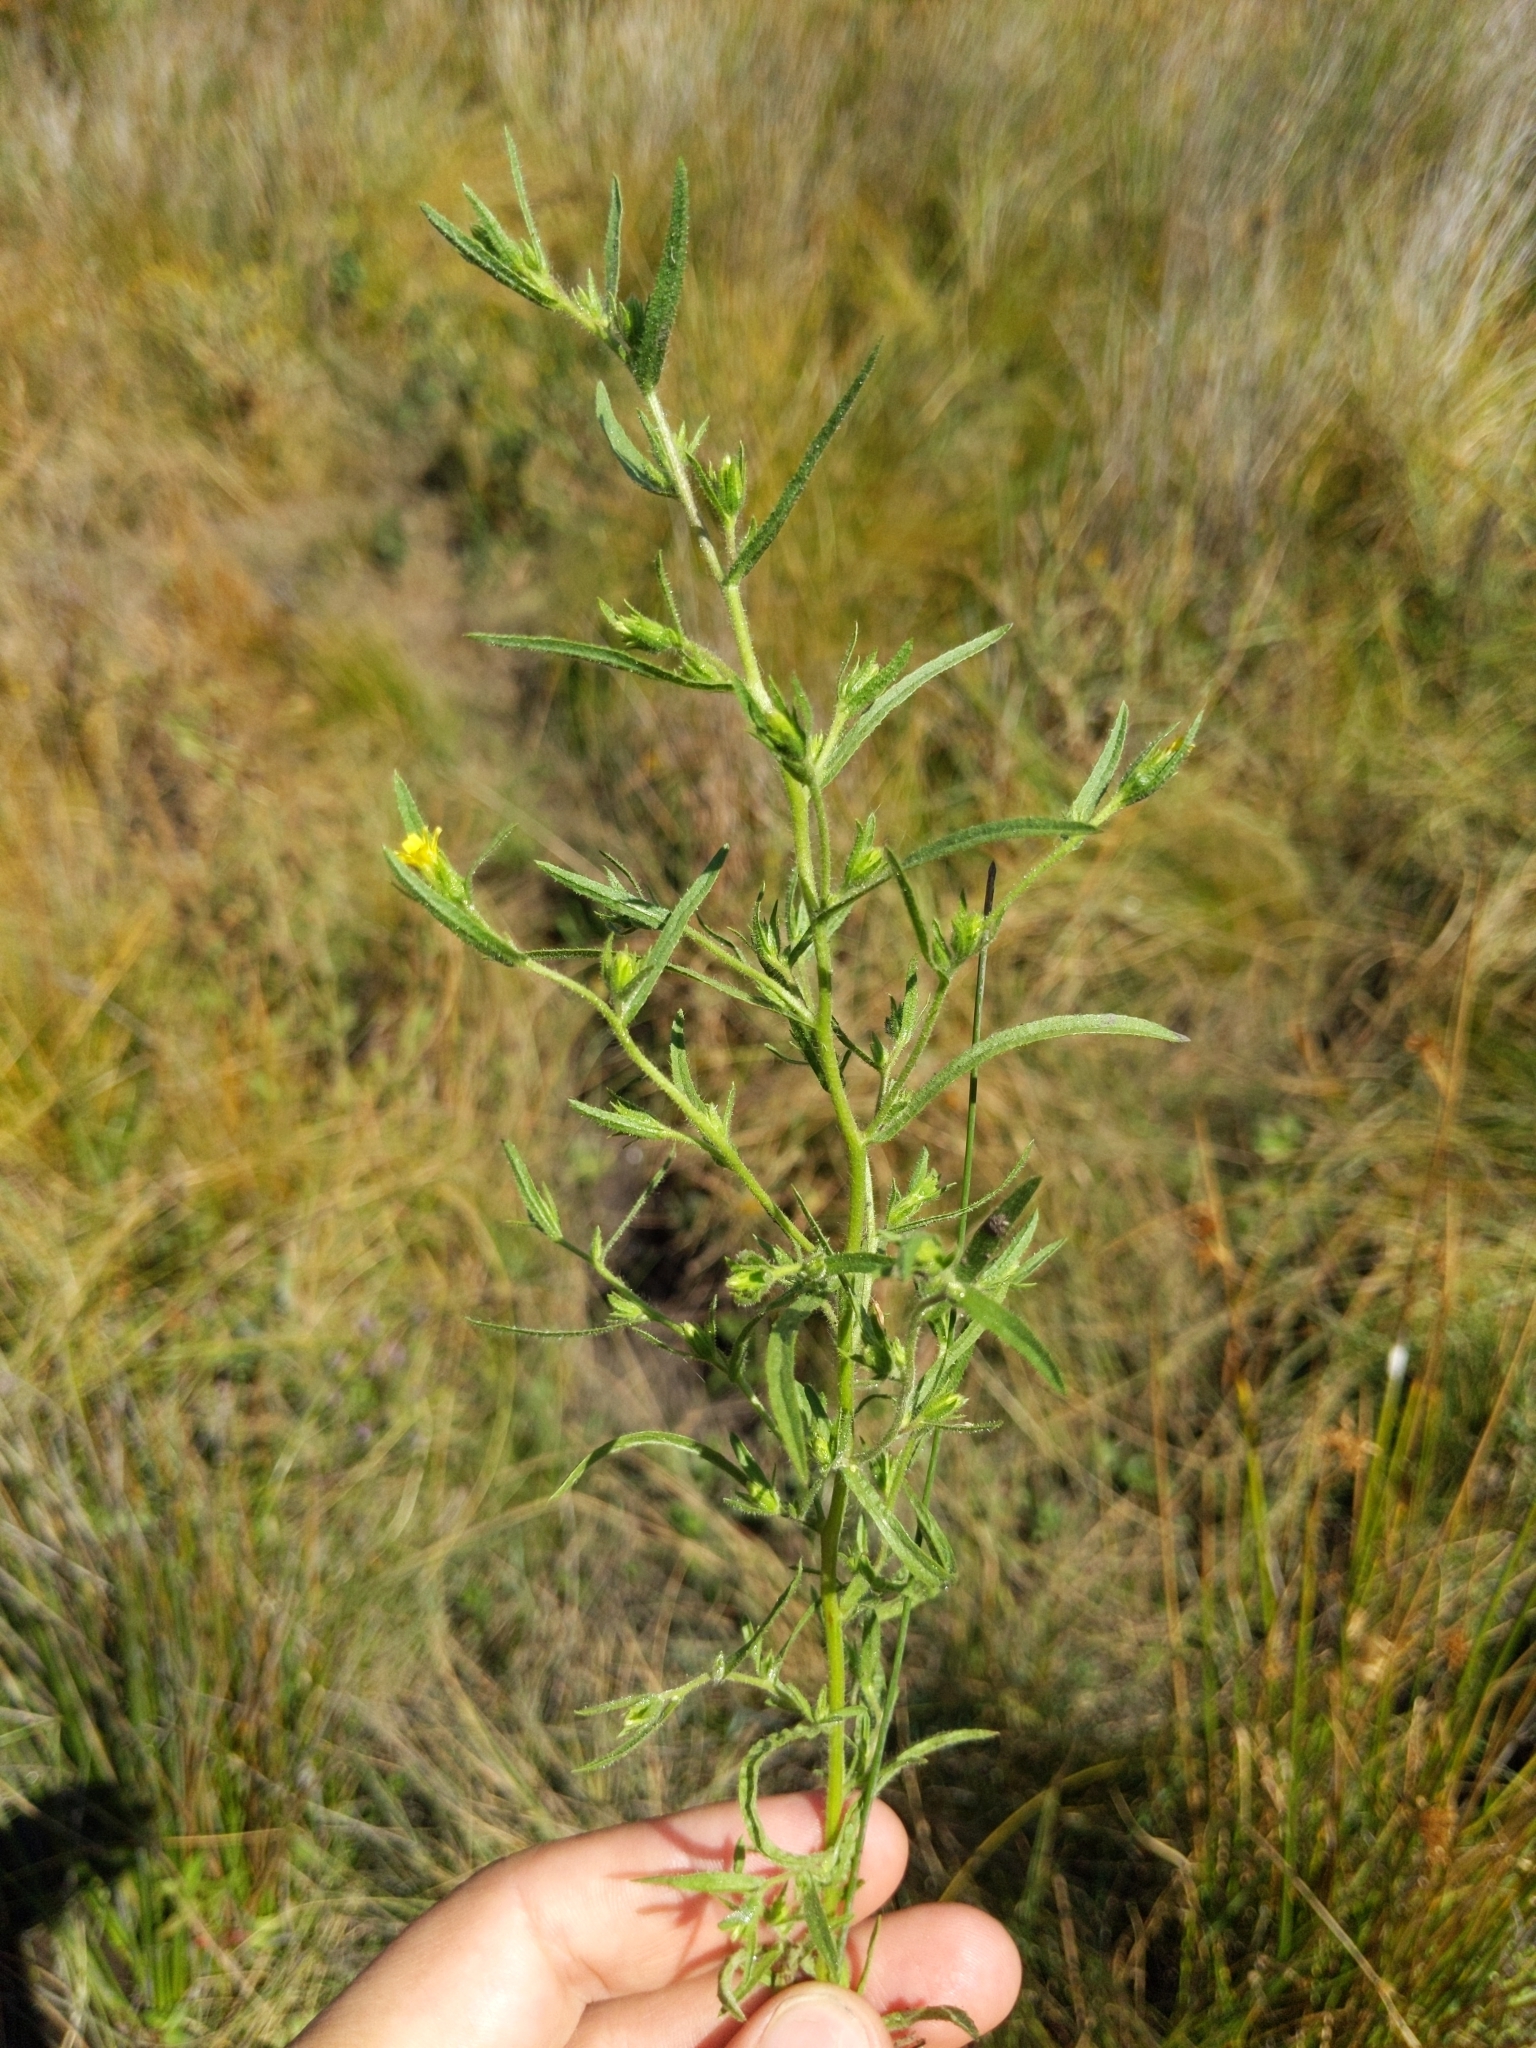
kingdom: Plantae
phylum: Tracheophyta
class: Magnoliopsida
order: Asterales
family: Asteraceae
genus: Dittrichia
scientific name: Dittrichia graveolens
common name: Stinking fleabane
